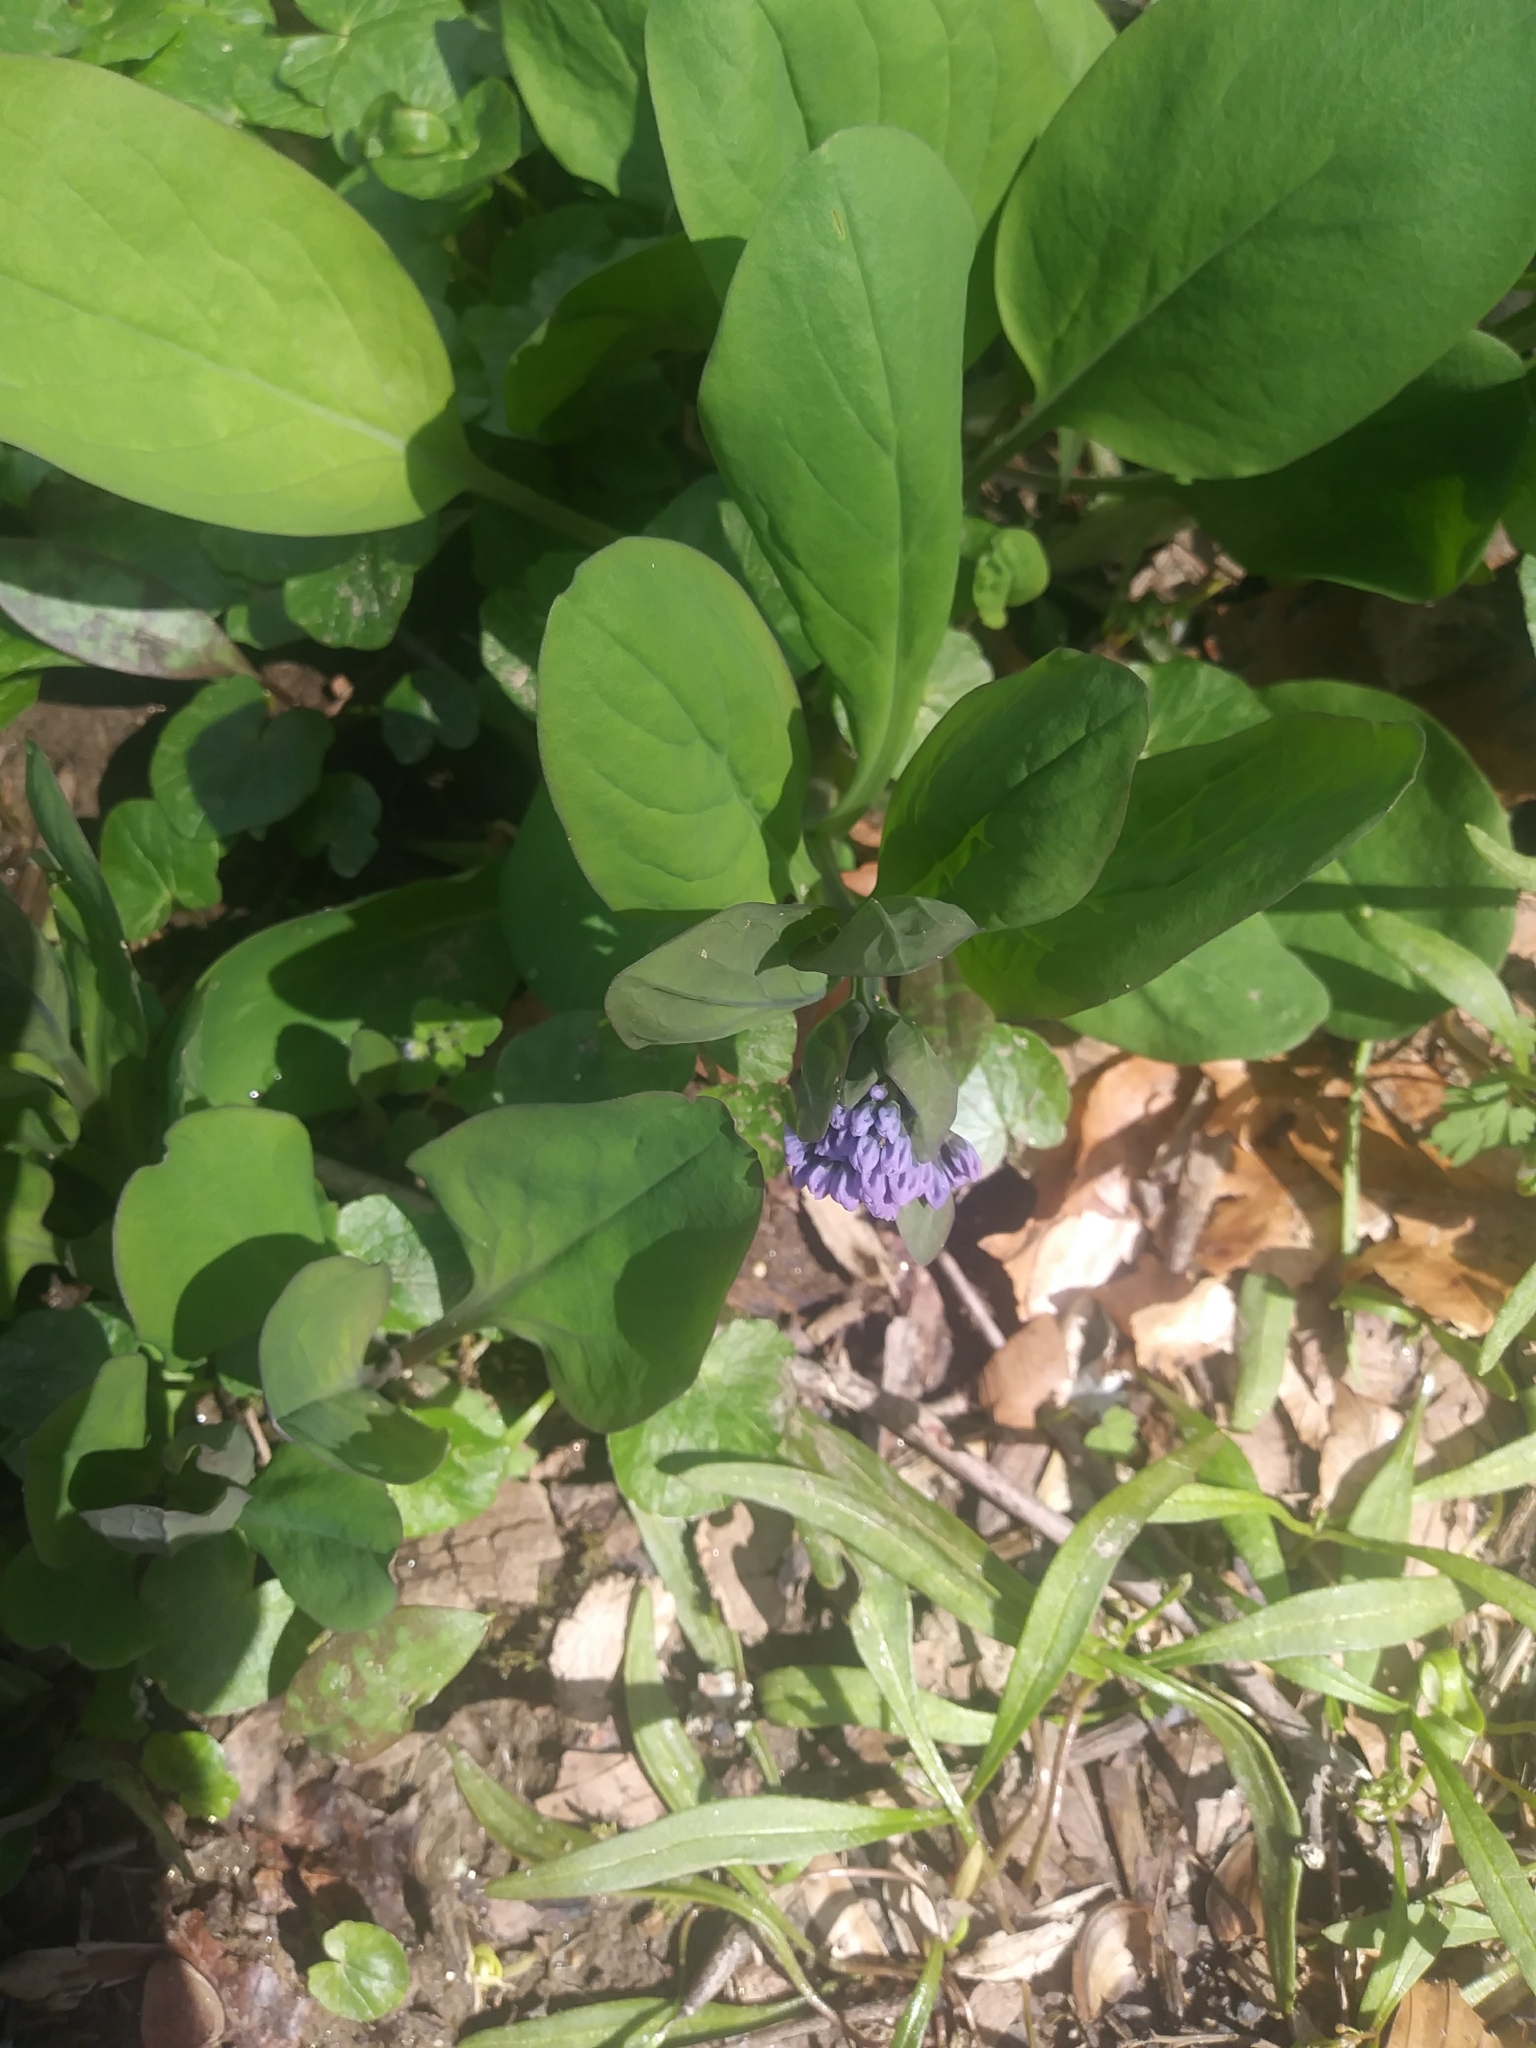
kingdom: Plantae
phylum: Tracheophyta
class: Magnoliopsida
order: Boraginales
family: Boraginaceae
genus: Mertensia
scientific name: Mertensia virginica
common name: Virginia bluebells
